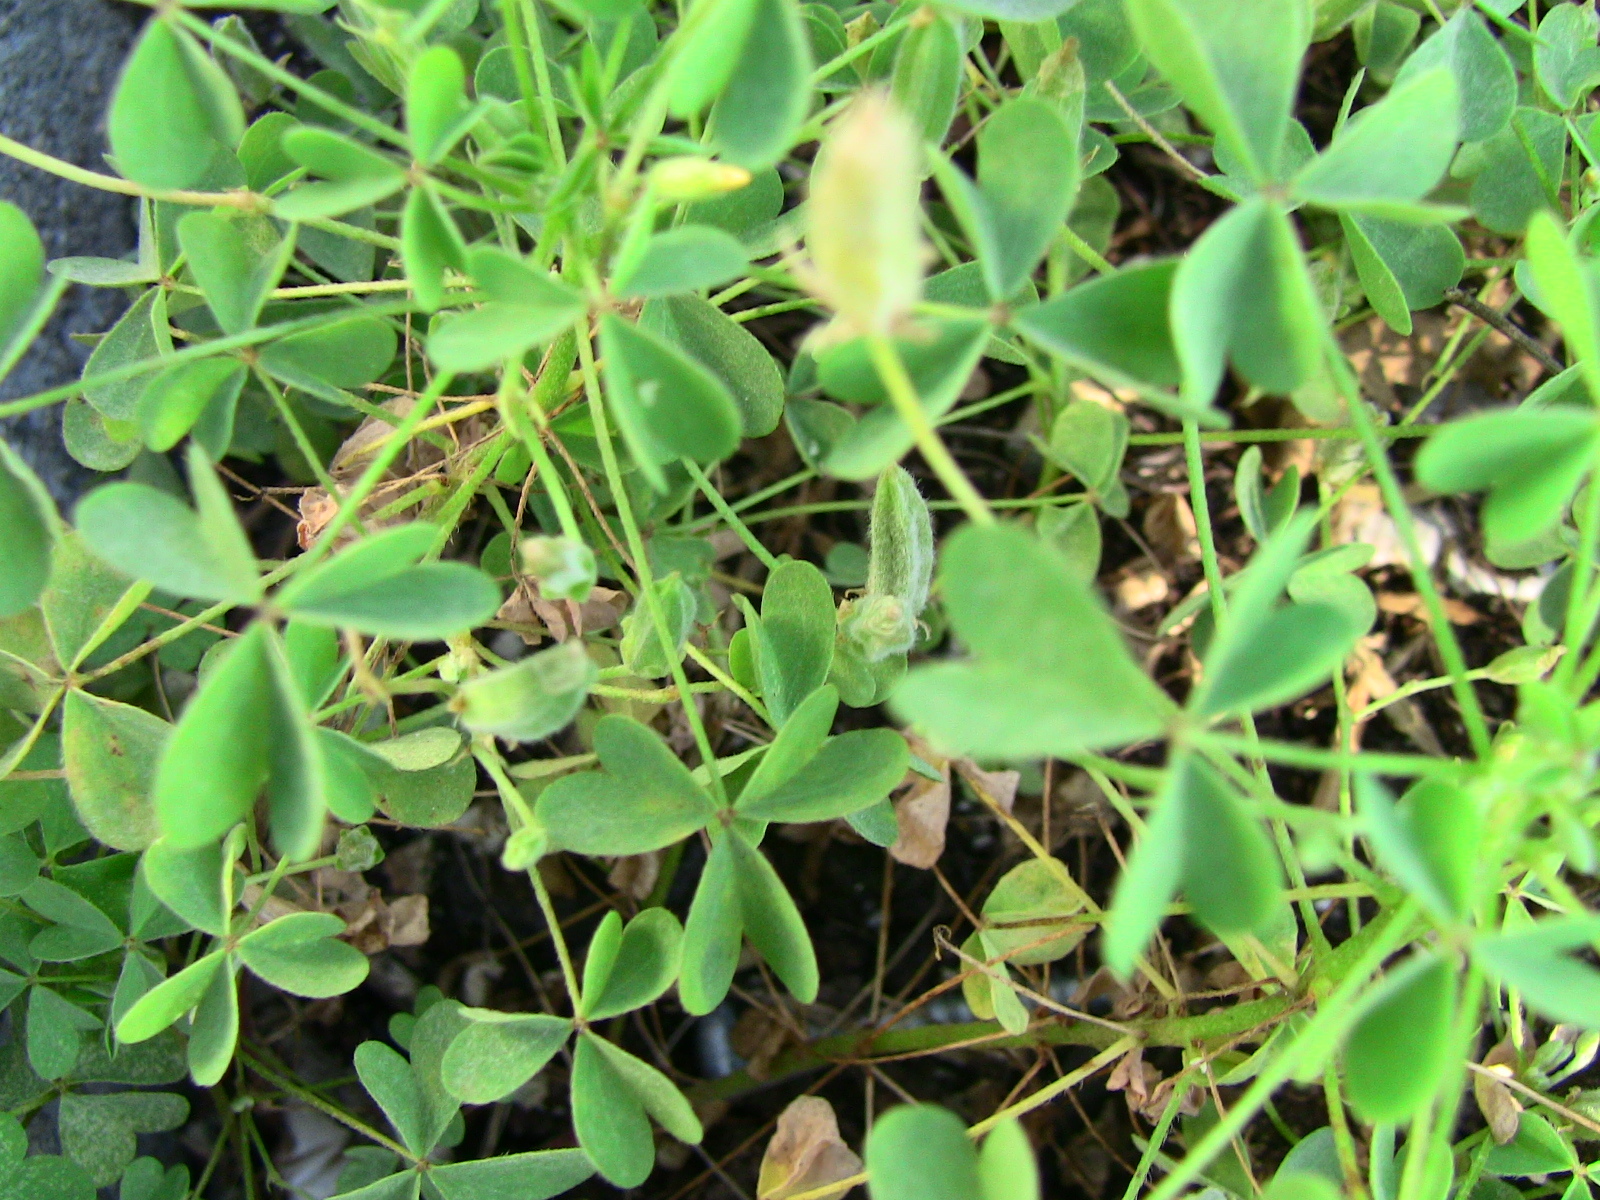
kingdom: Plantae
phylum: Tracheophyta
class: Magnoliopsida
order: Oxalidales
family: Oxalidaceae
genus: Oxalis
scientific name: Oxalis stricta
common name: Upright yellow-sorrel
